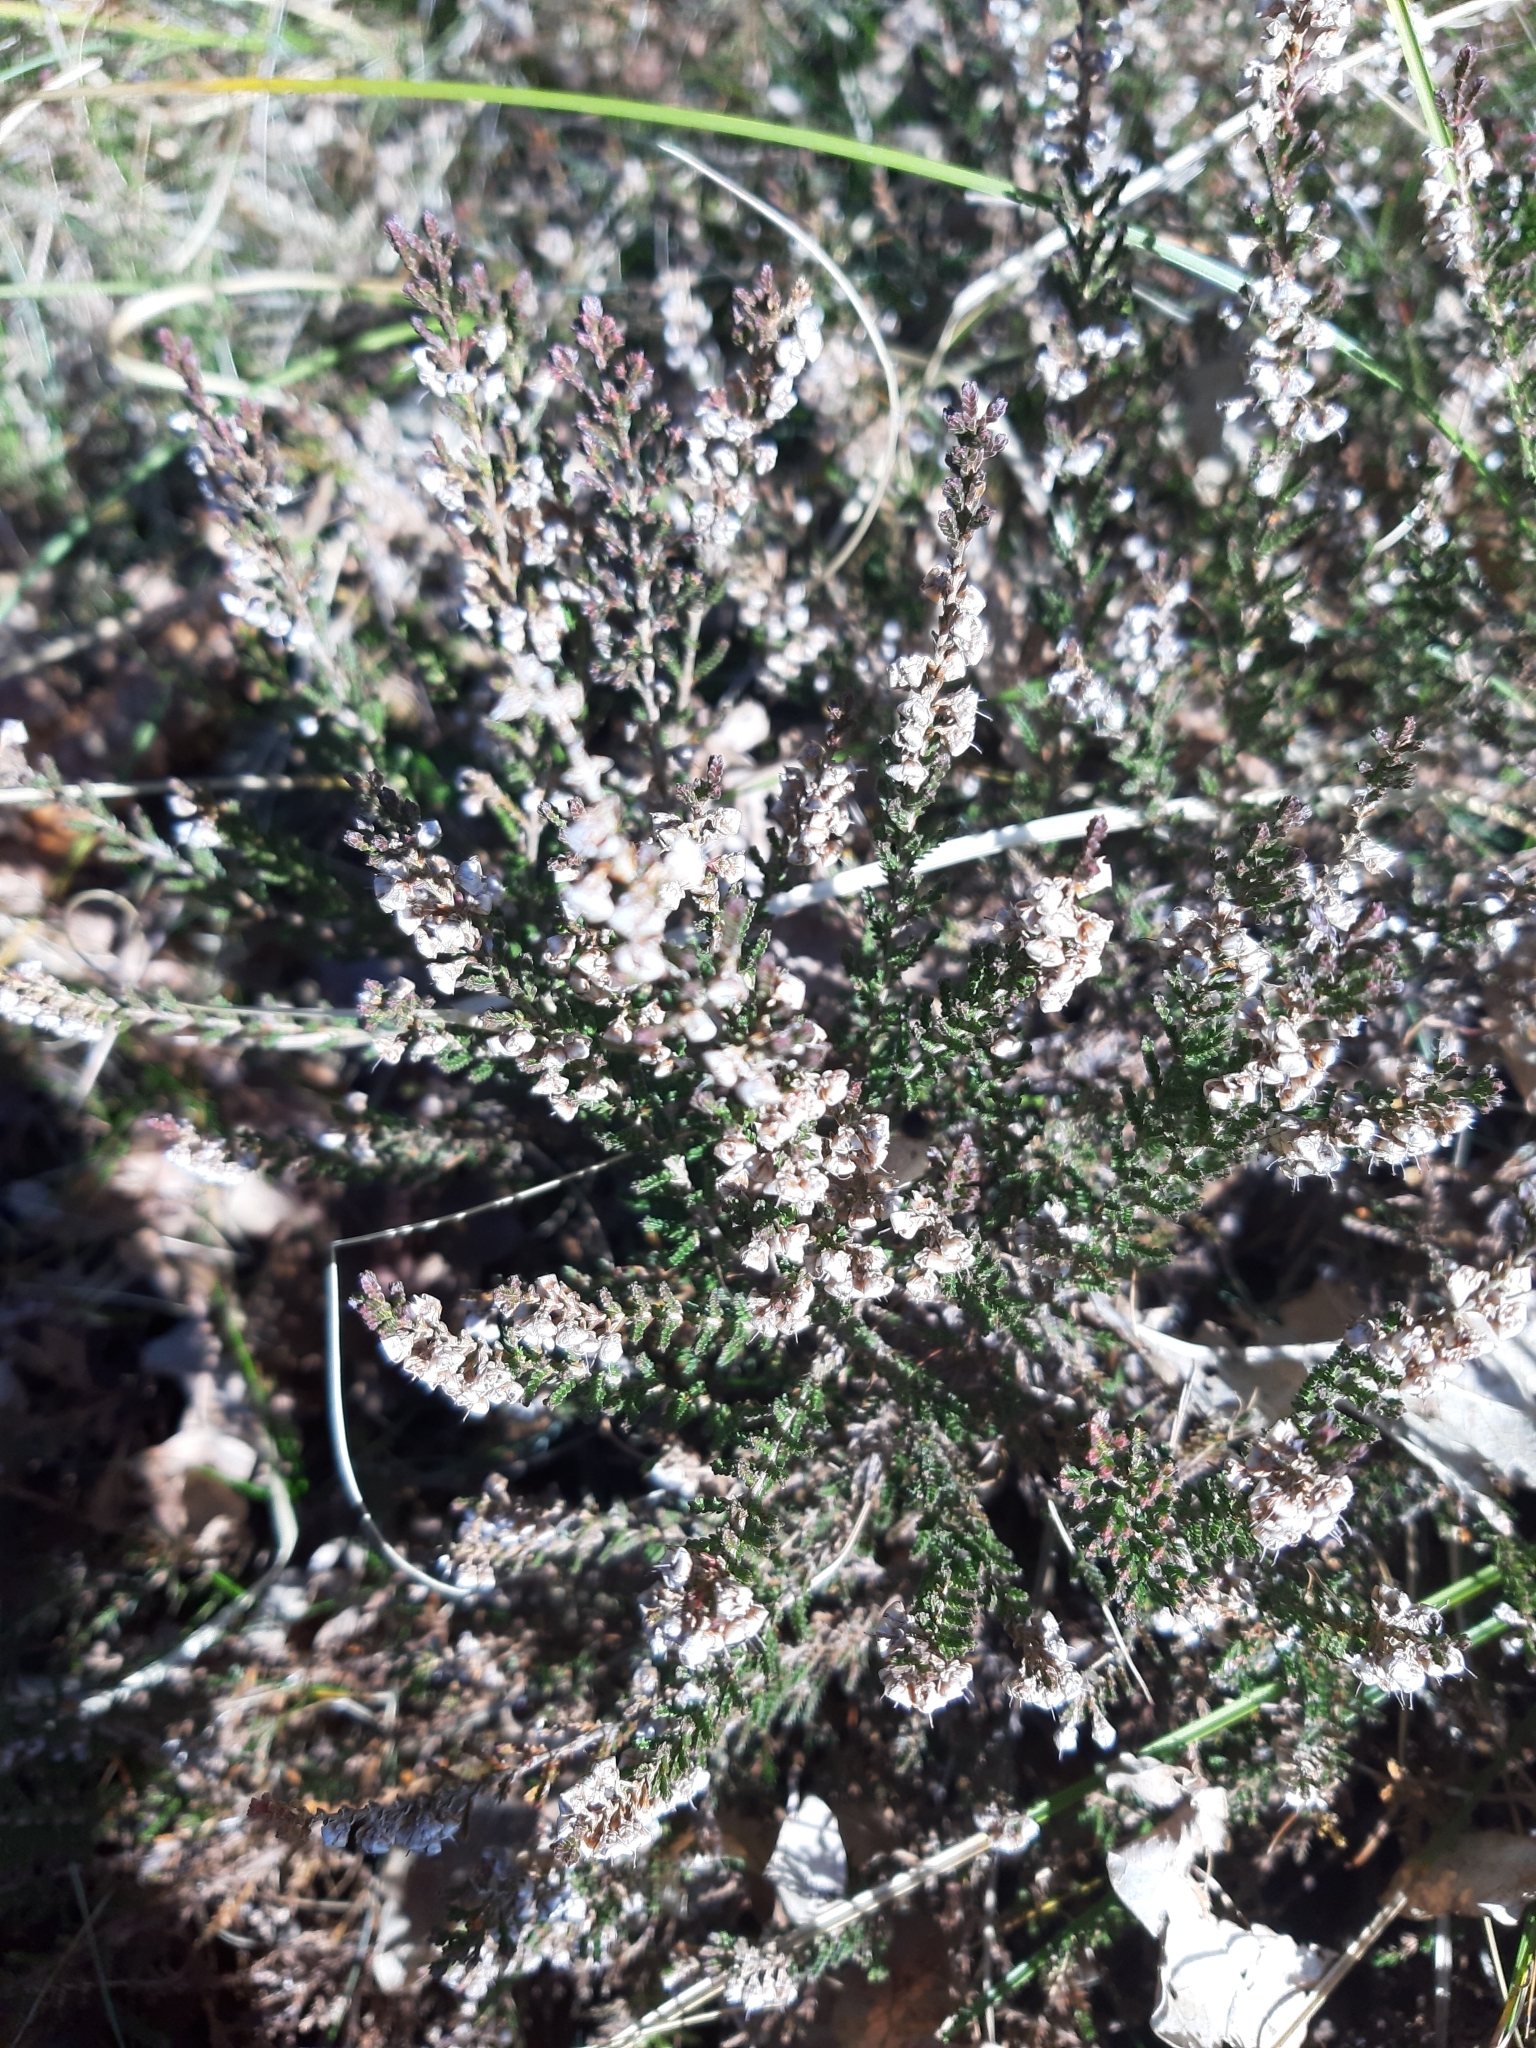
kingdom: Plantae
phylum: Tracheophyta
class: Magnoliopsida
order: Ericales
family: Ericaceae
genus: Calluna
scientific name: Calluna vulgaris
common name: Heather
